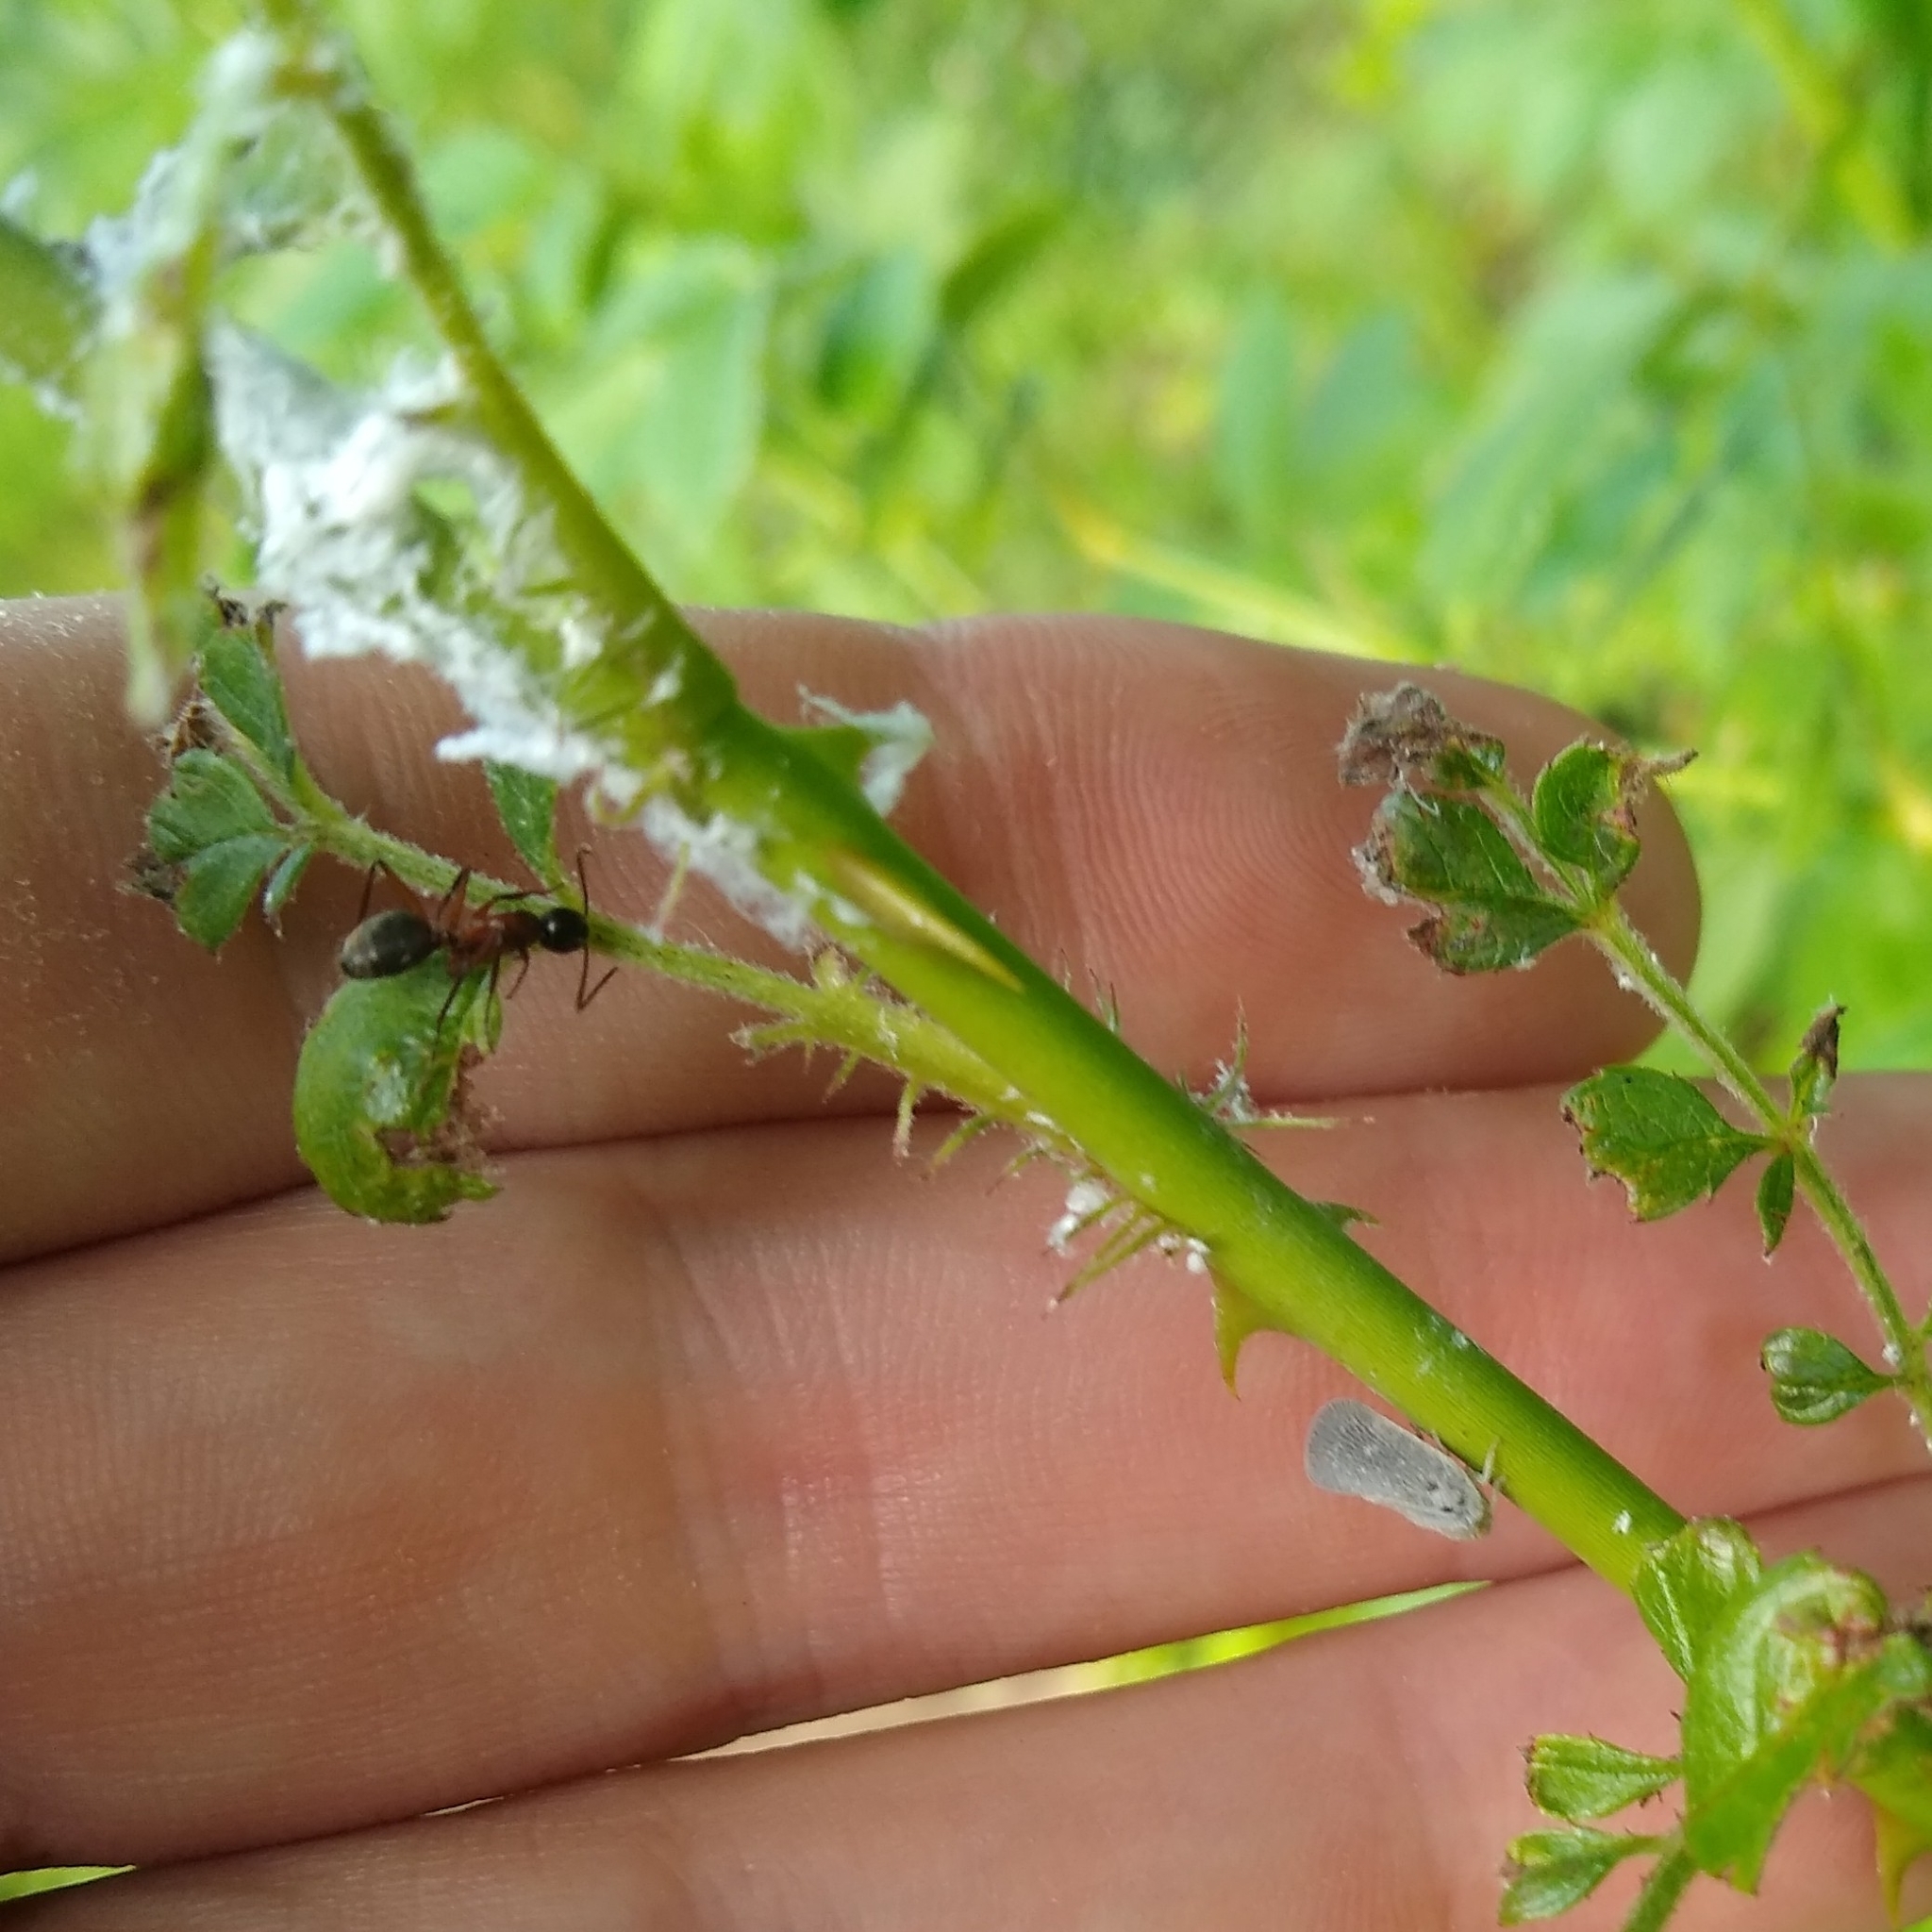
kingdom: Animalia
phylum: Arthropoda
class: Insecta
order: Hemiptera
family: Flatidae
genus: Metcalfa
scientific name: Metcalfa pruinosa
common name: Citrus flatid planthopper
